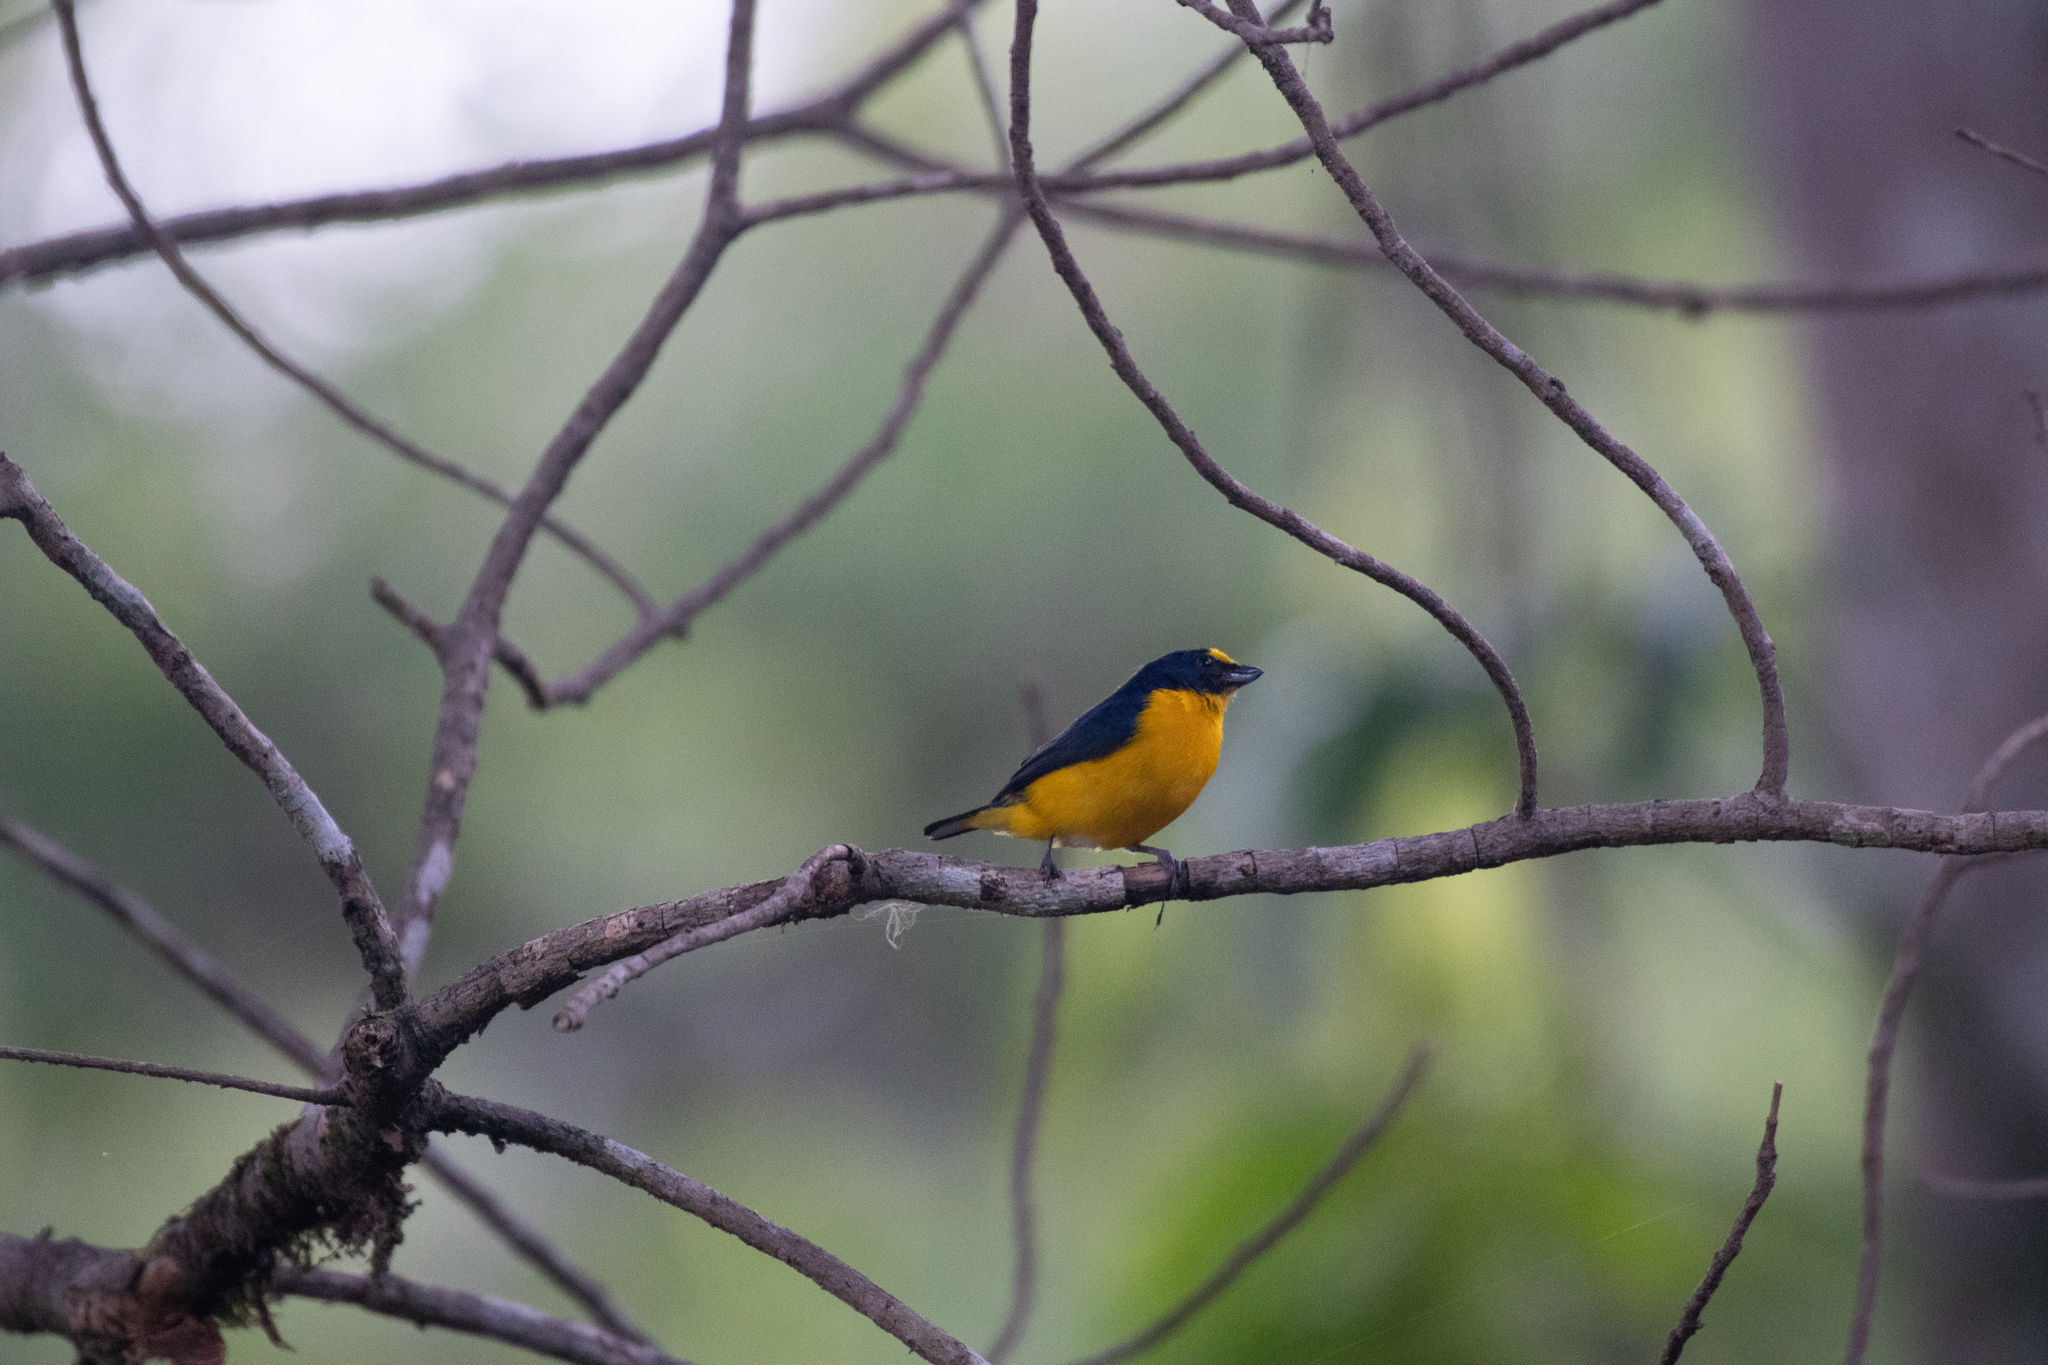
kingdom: Animalia
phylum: Chordata
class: Aves
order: Passeriformes
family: Fringillidae
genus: Euphonia
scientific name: Euphonia hirundinacea
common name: Yellow-throated euphonia
